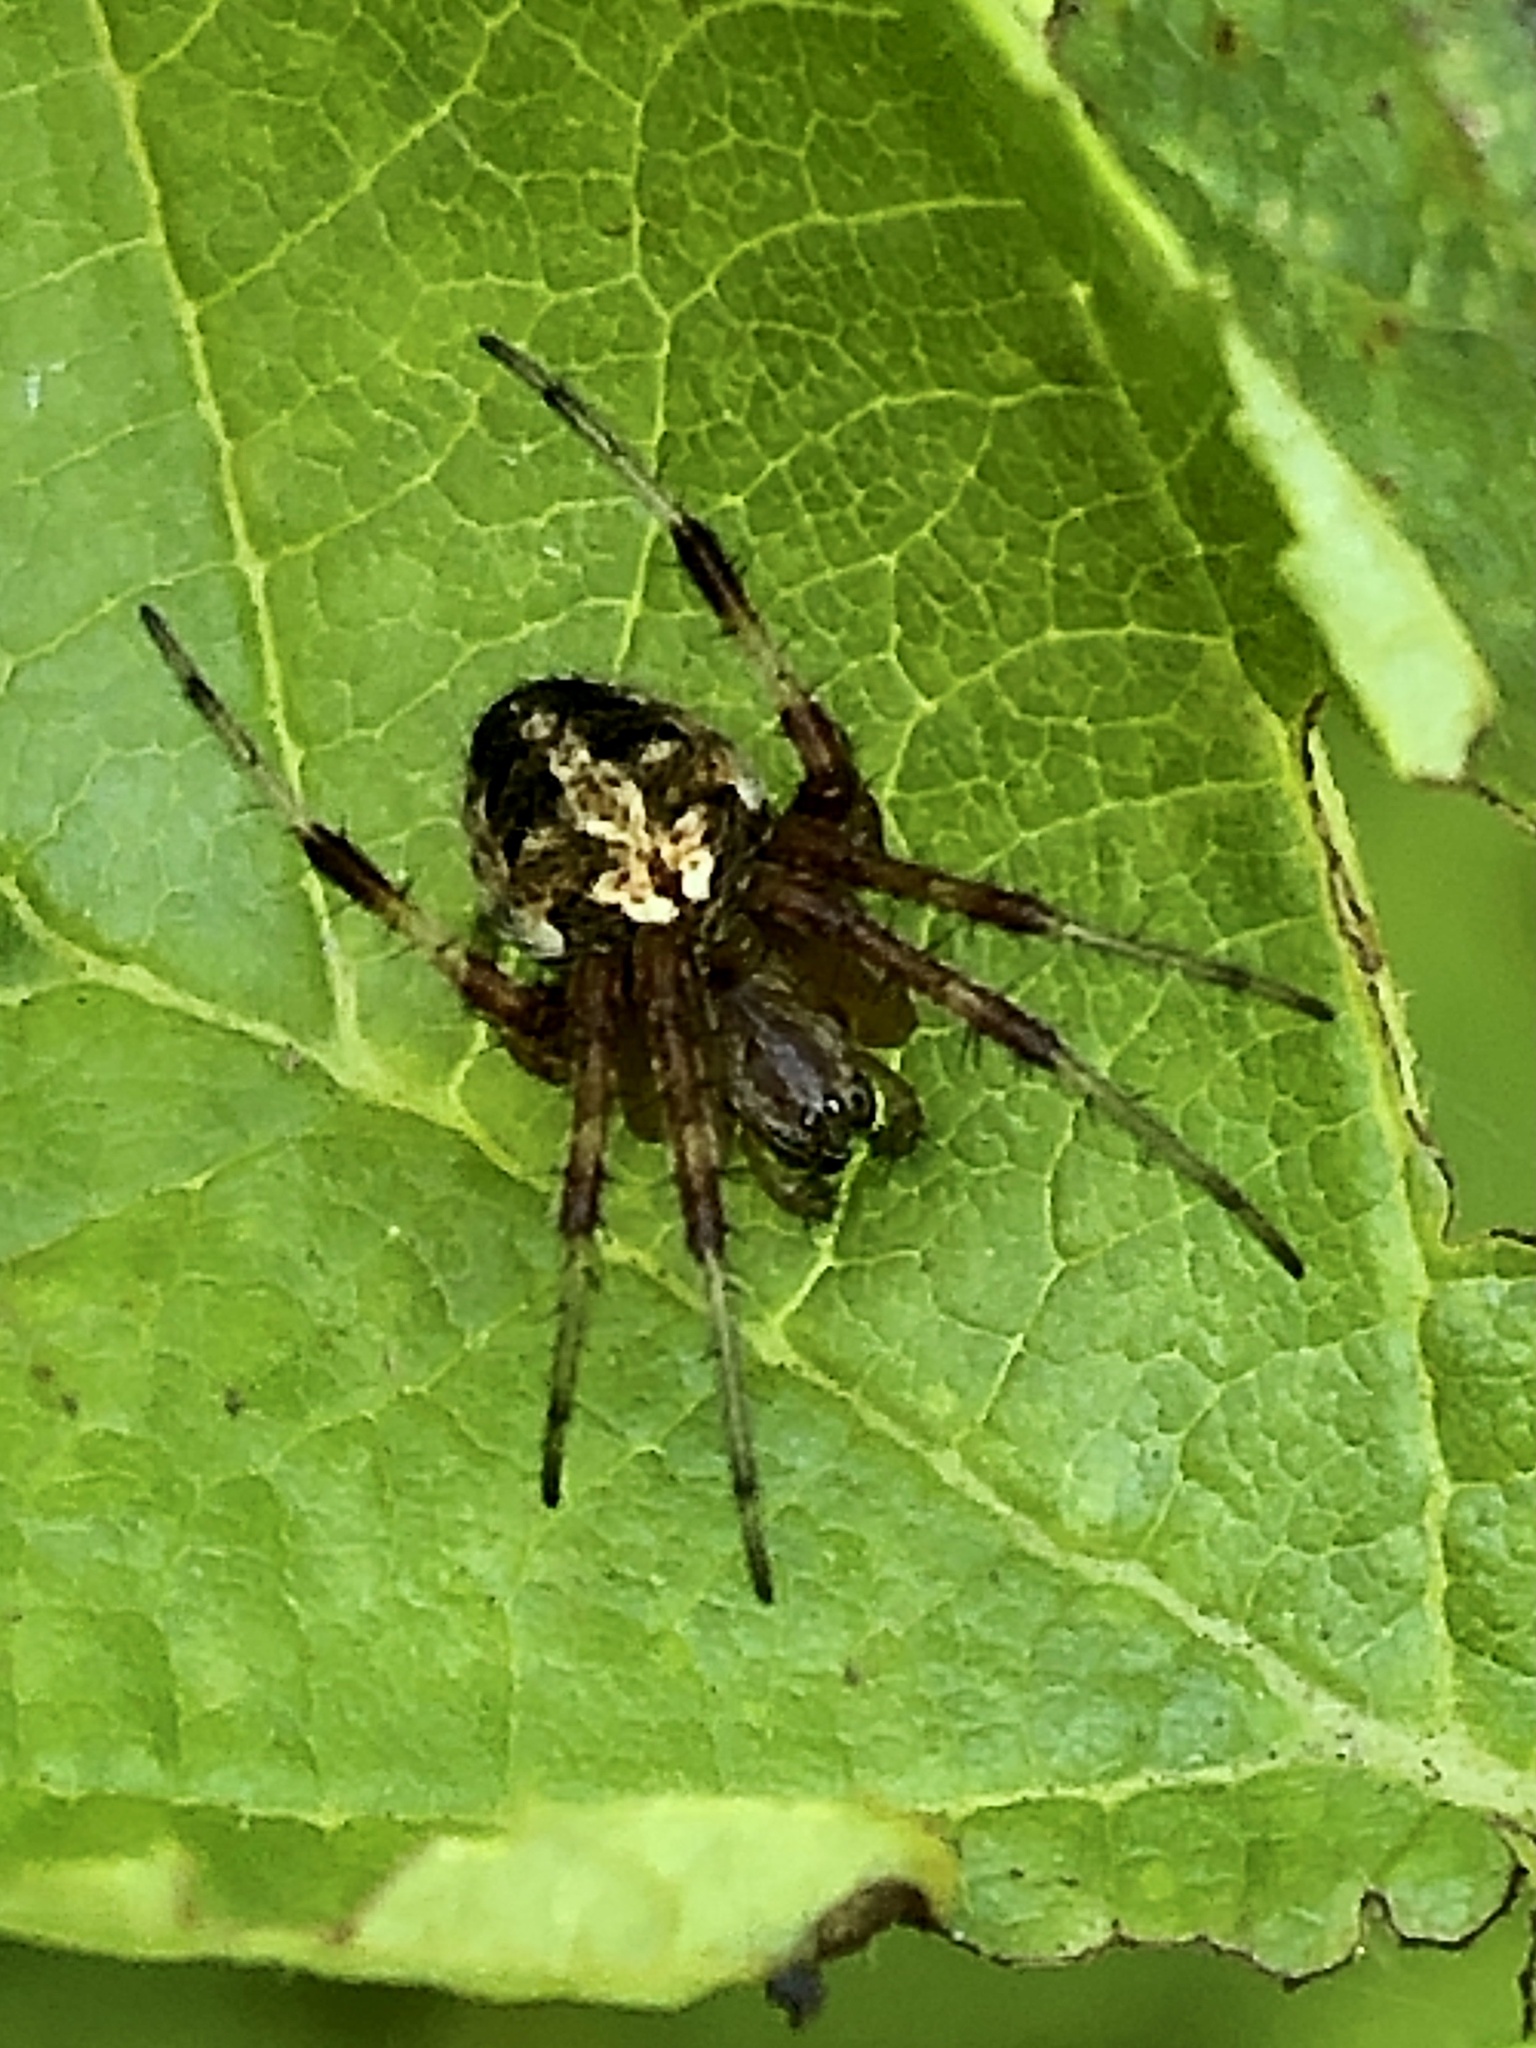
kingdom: Animalia
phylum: Arthropoda
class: Arachnida
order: Araneae
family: Araneidae
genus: Neoscona
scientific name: Neoscona arabesca
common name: Orb weavers
